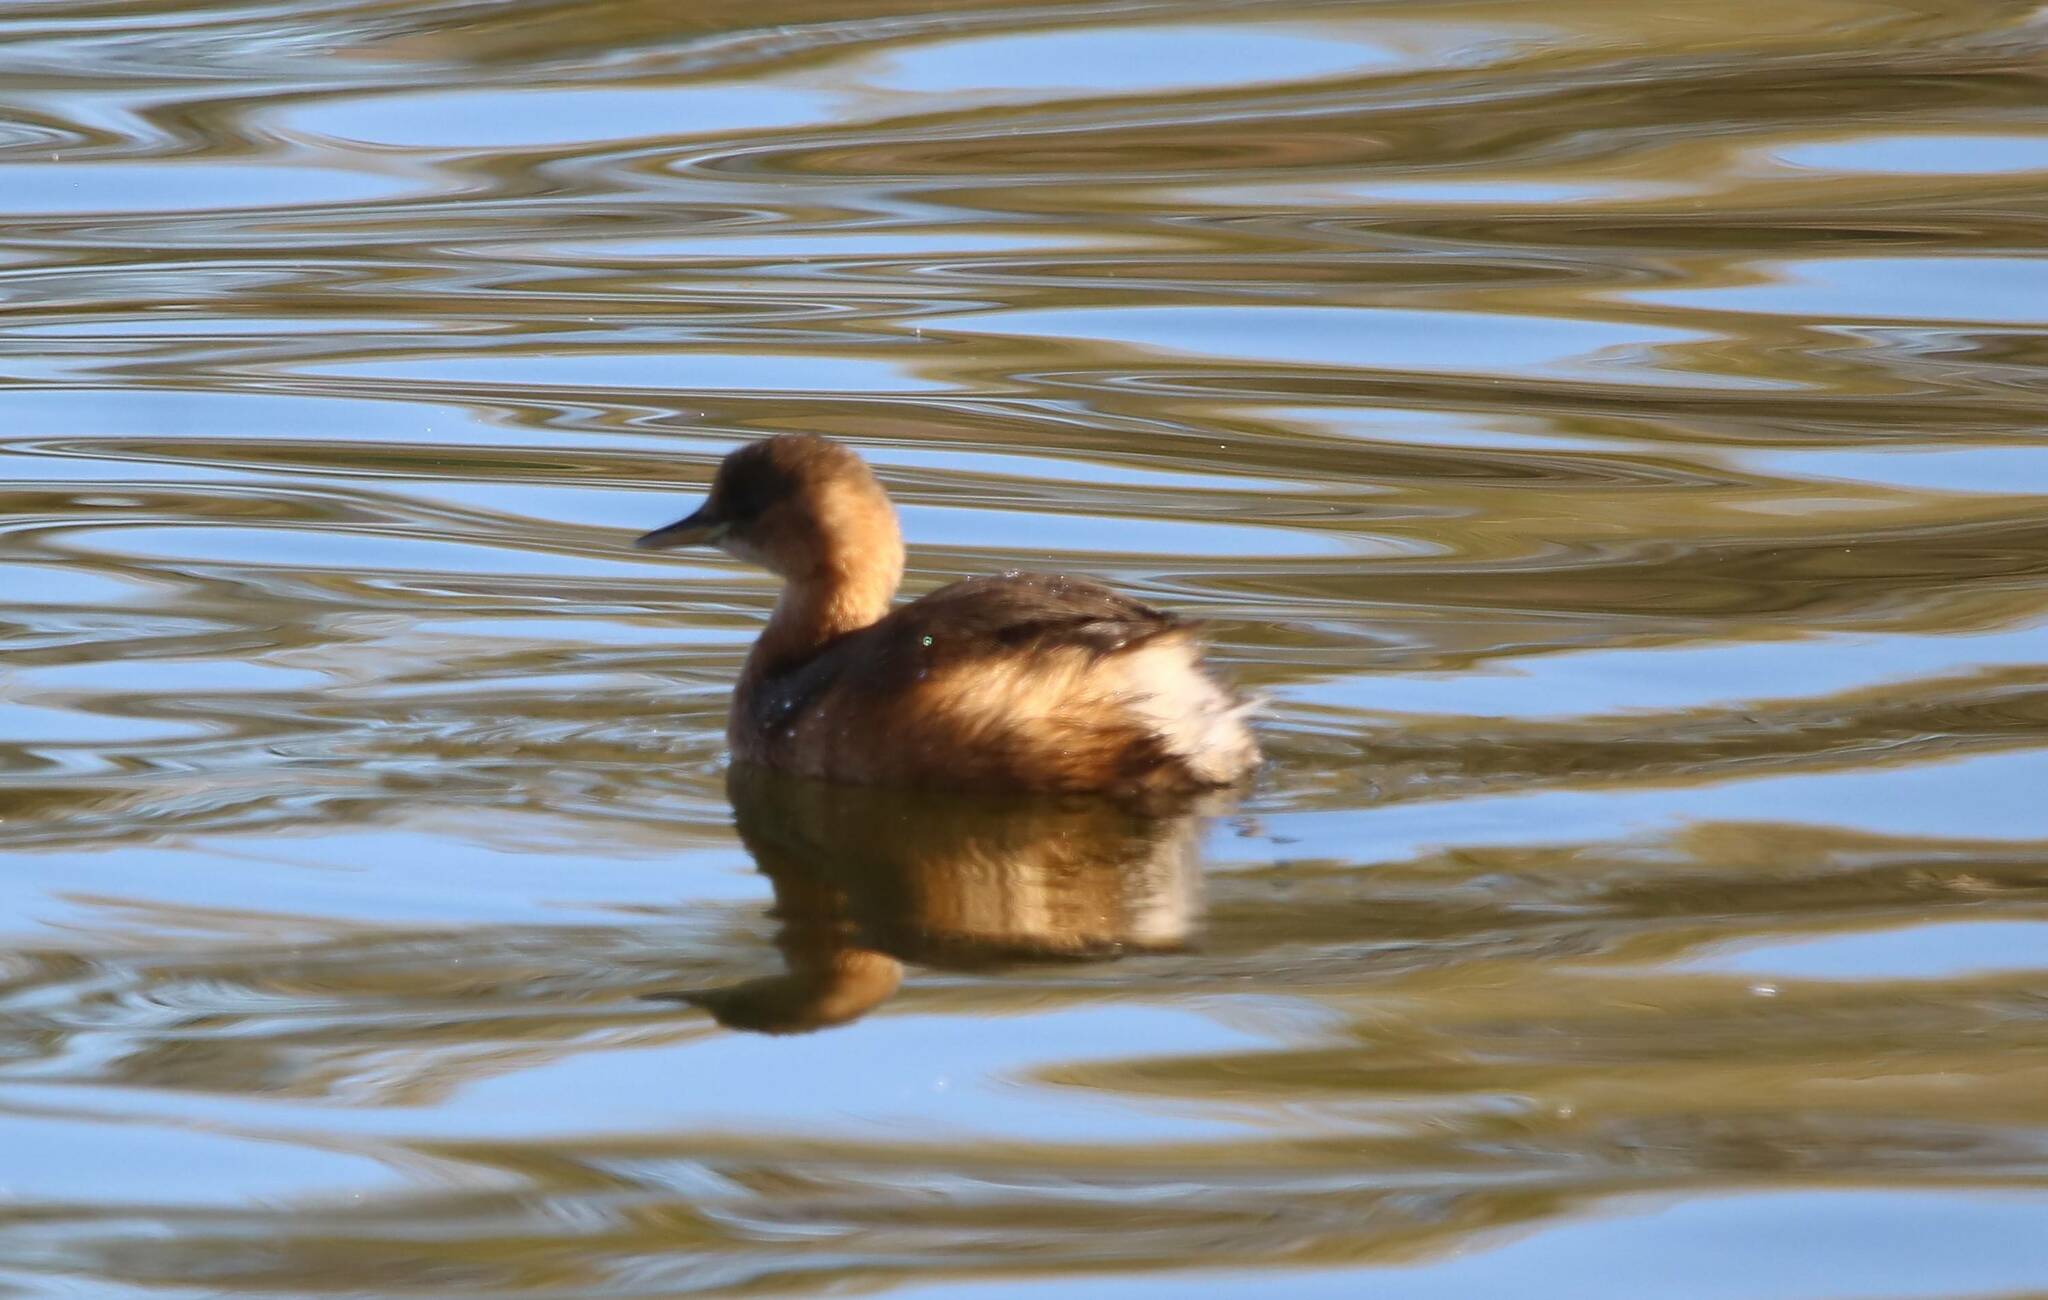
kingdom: Animalia
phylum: Chordata
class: Aves
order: Podicipediformes
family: Podicipedidae
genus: Tachybaptus
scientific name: Tachybaptus ruficollis
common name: Little grebe
